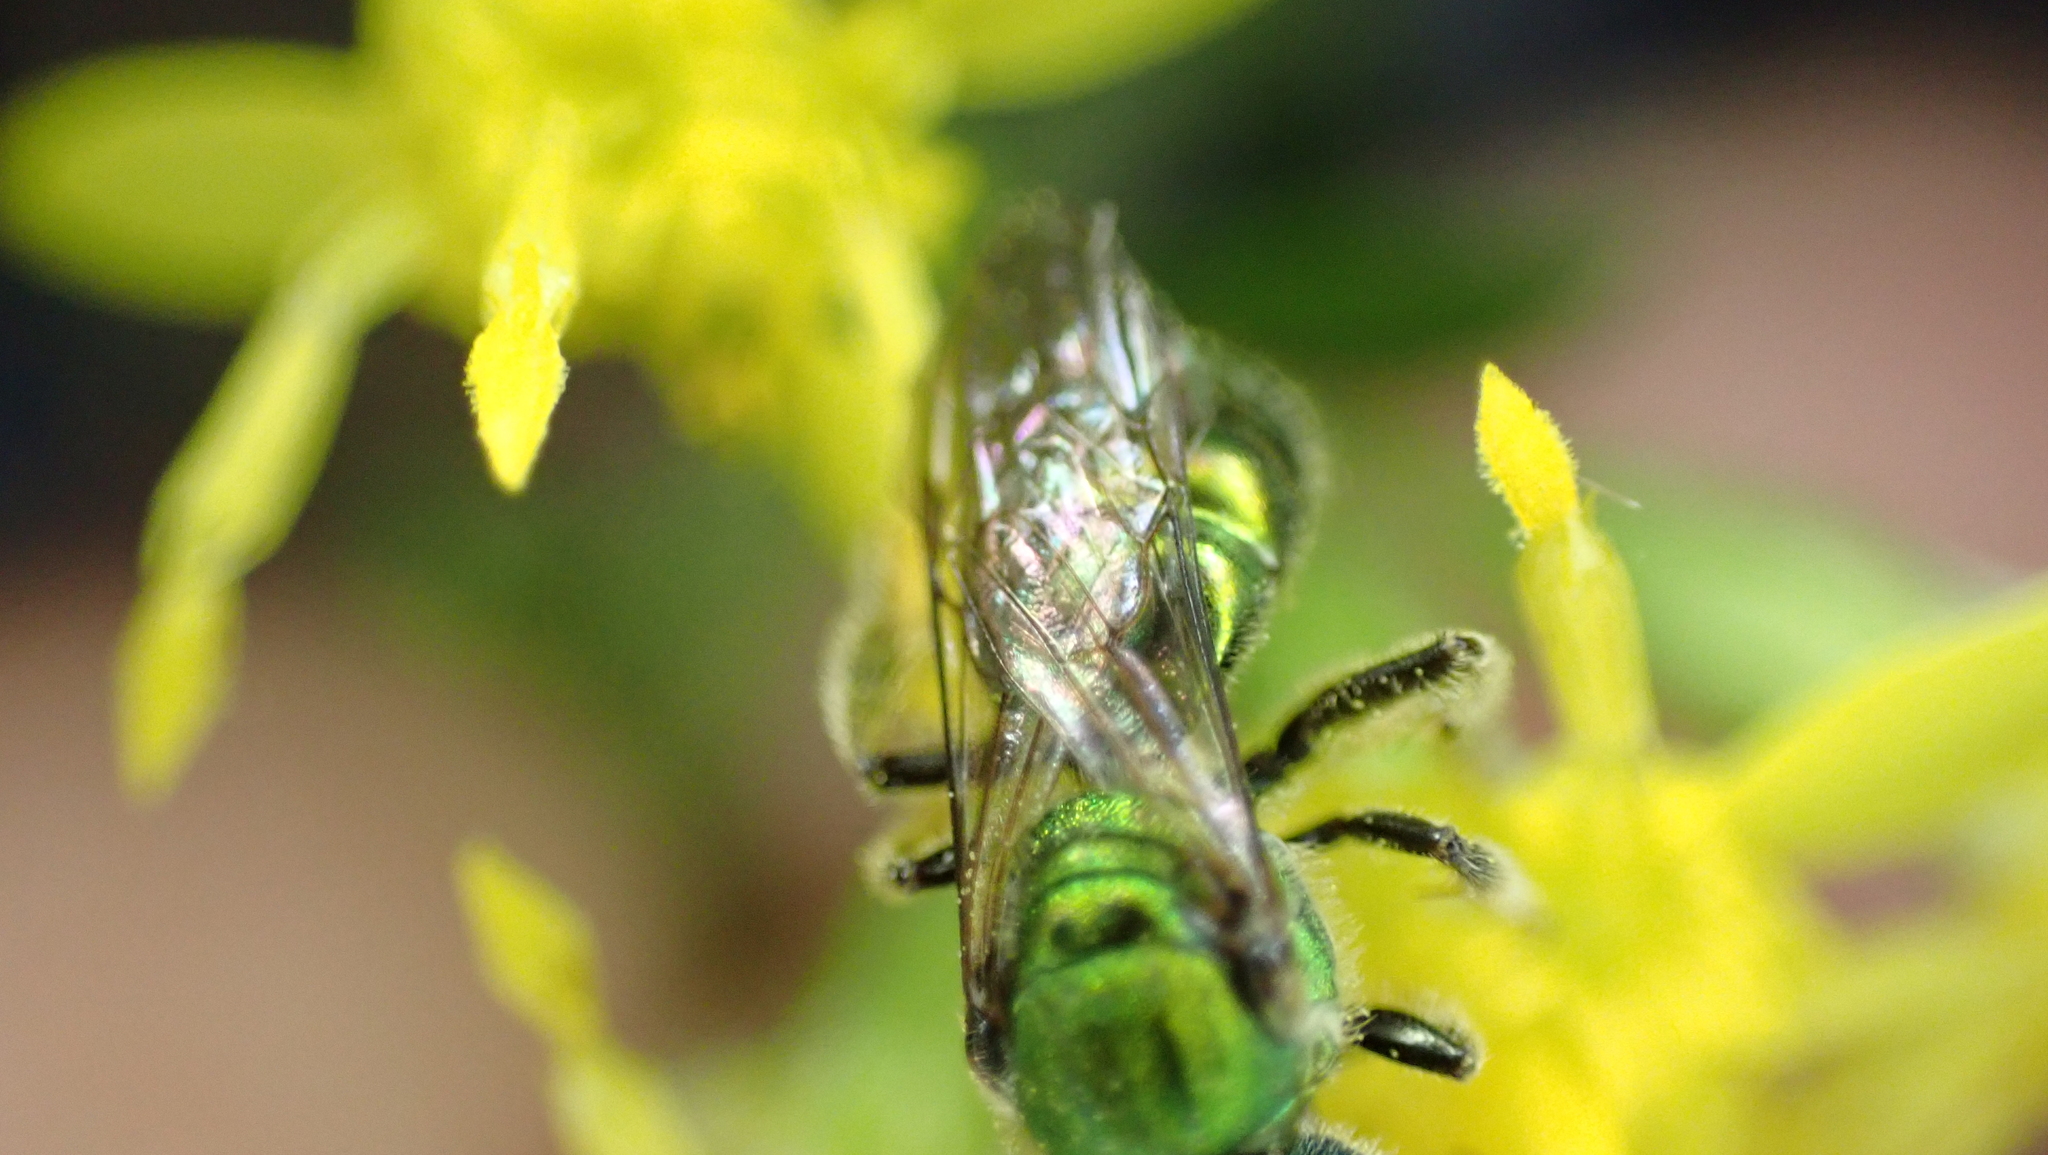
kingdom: Animalia
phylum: Arthropoda
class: Insecta
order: Hymenoptera
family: Halictidae
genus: Augochlora
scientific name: Augochlora pura
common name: Pure green sweat bee
